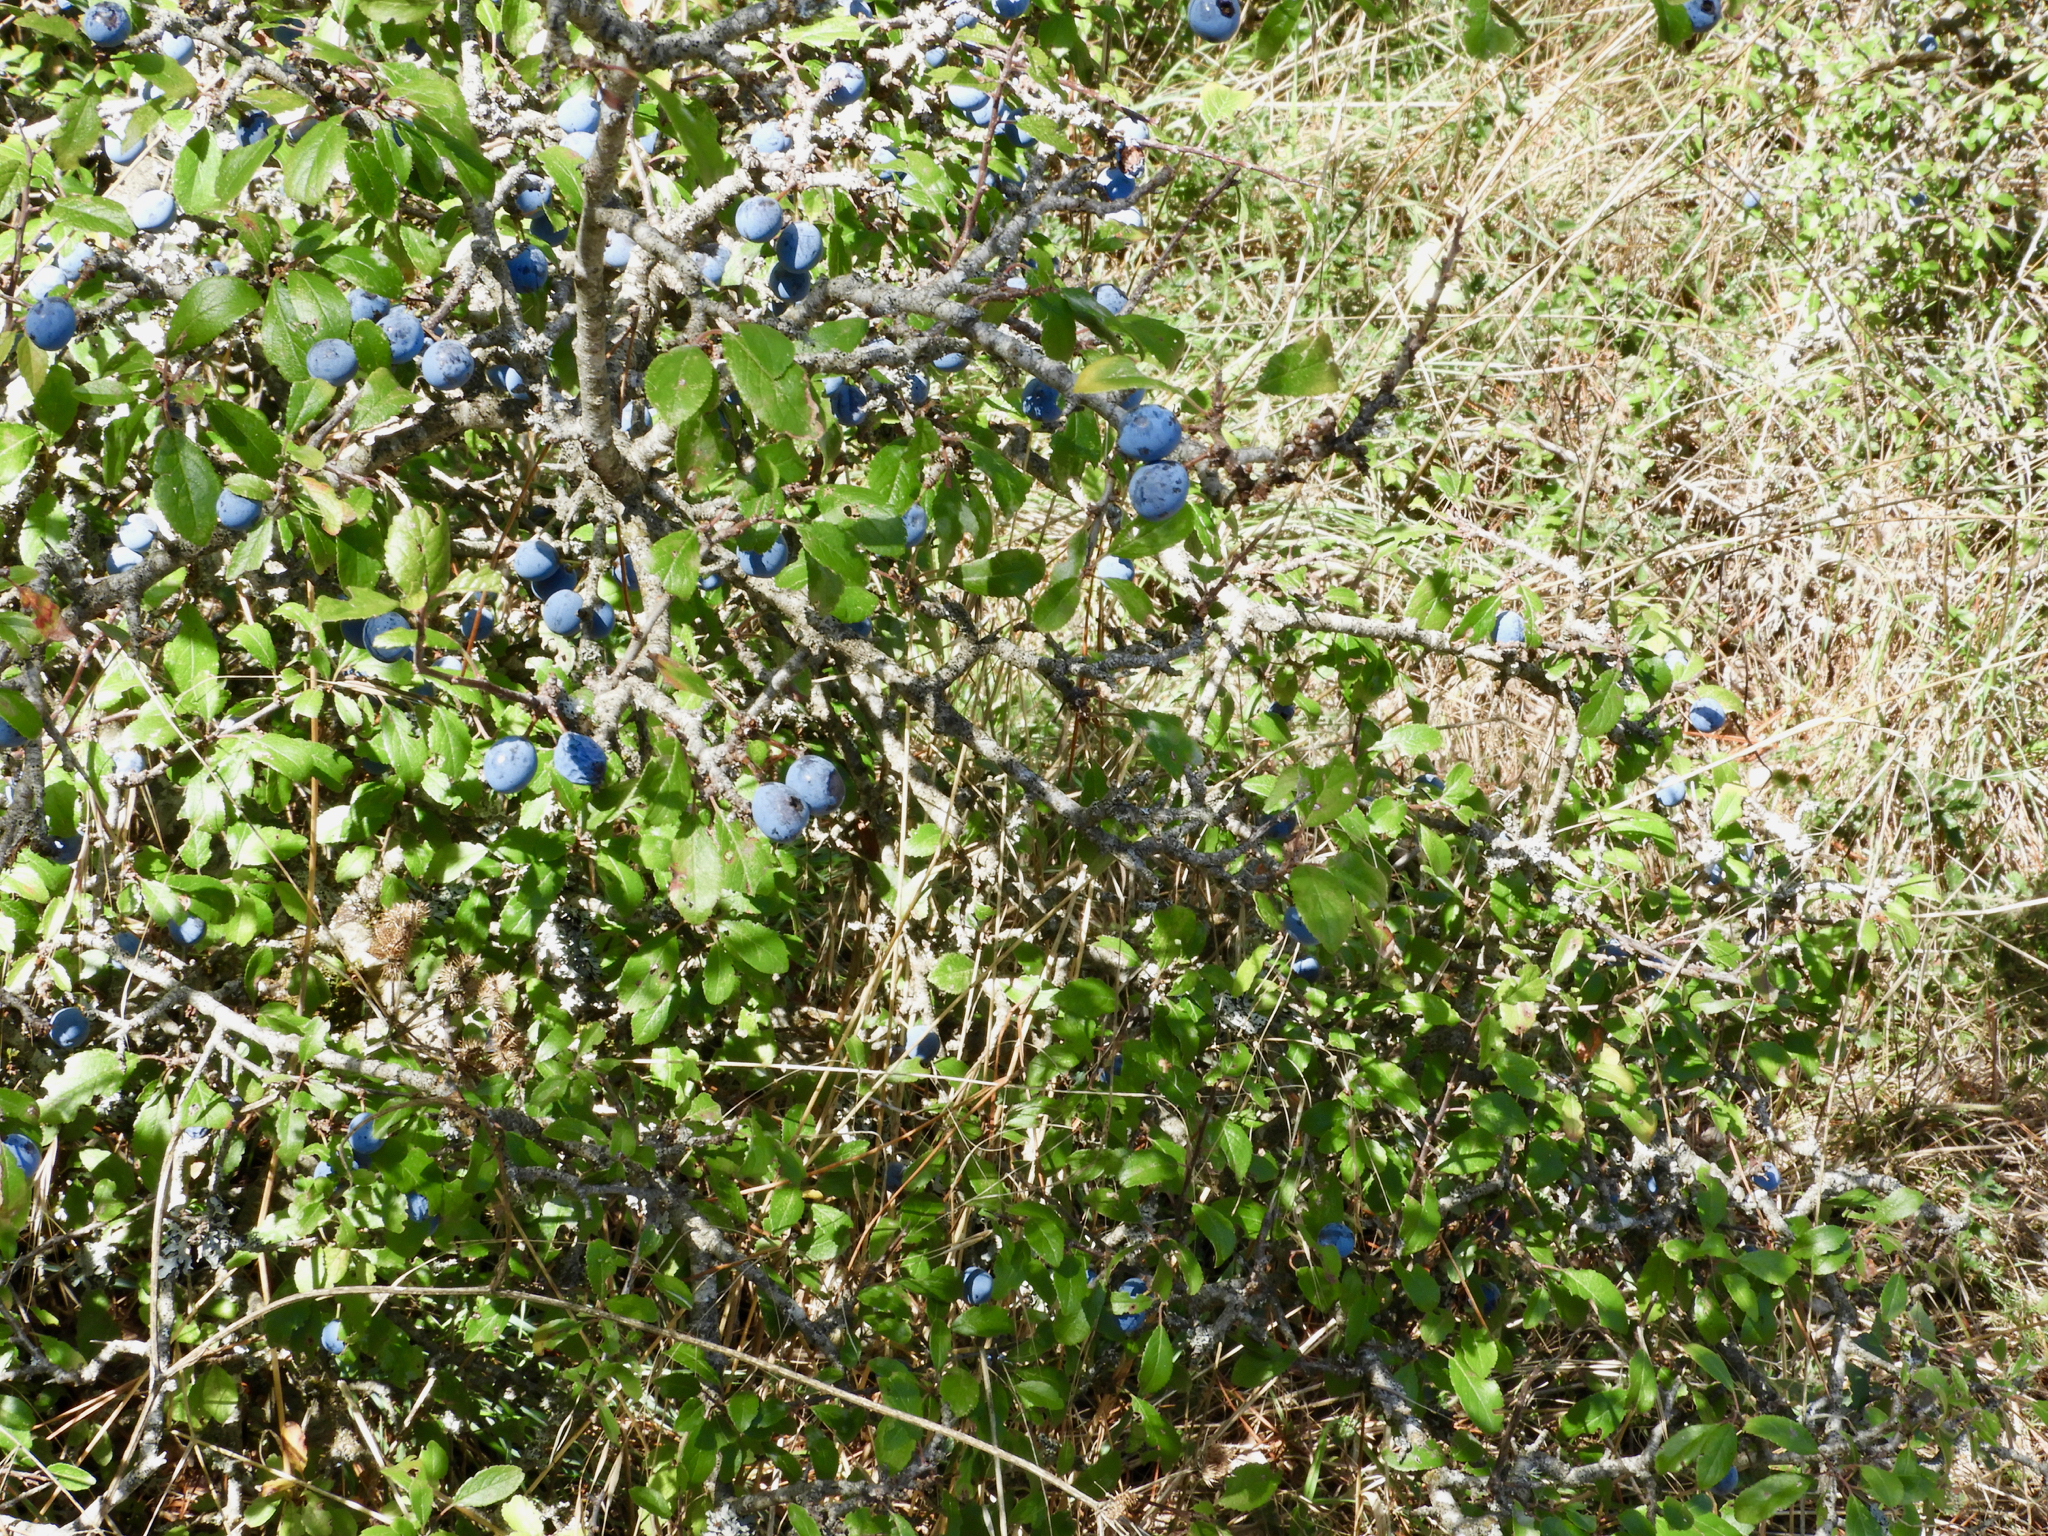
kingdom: Plantae
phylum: Tracheophyta
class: Magnoliopsida
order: Rosales
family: Rosaceae
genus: Prunus
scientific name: Prunus spinosa
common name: Blackthorn
